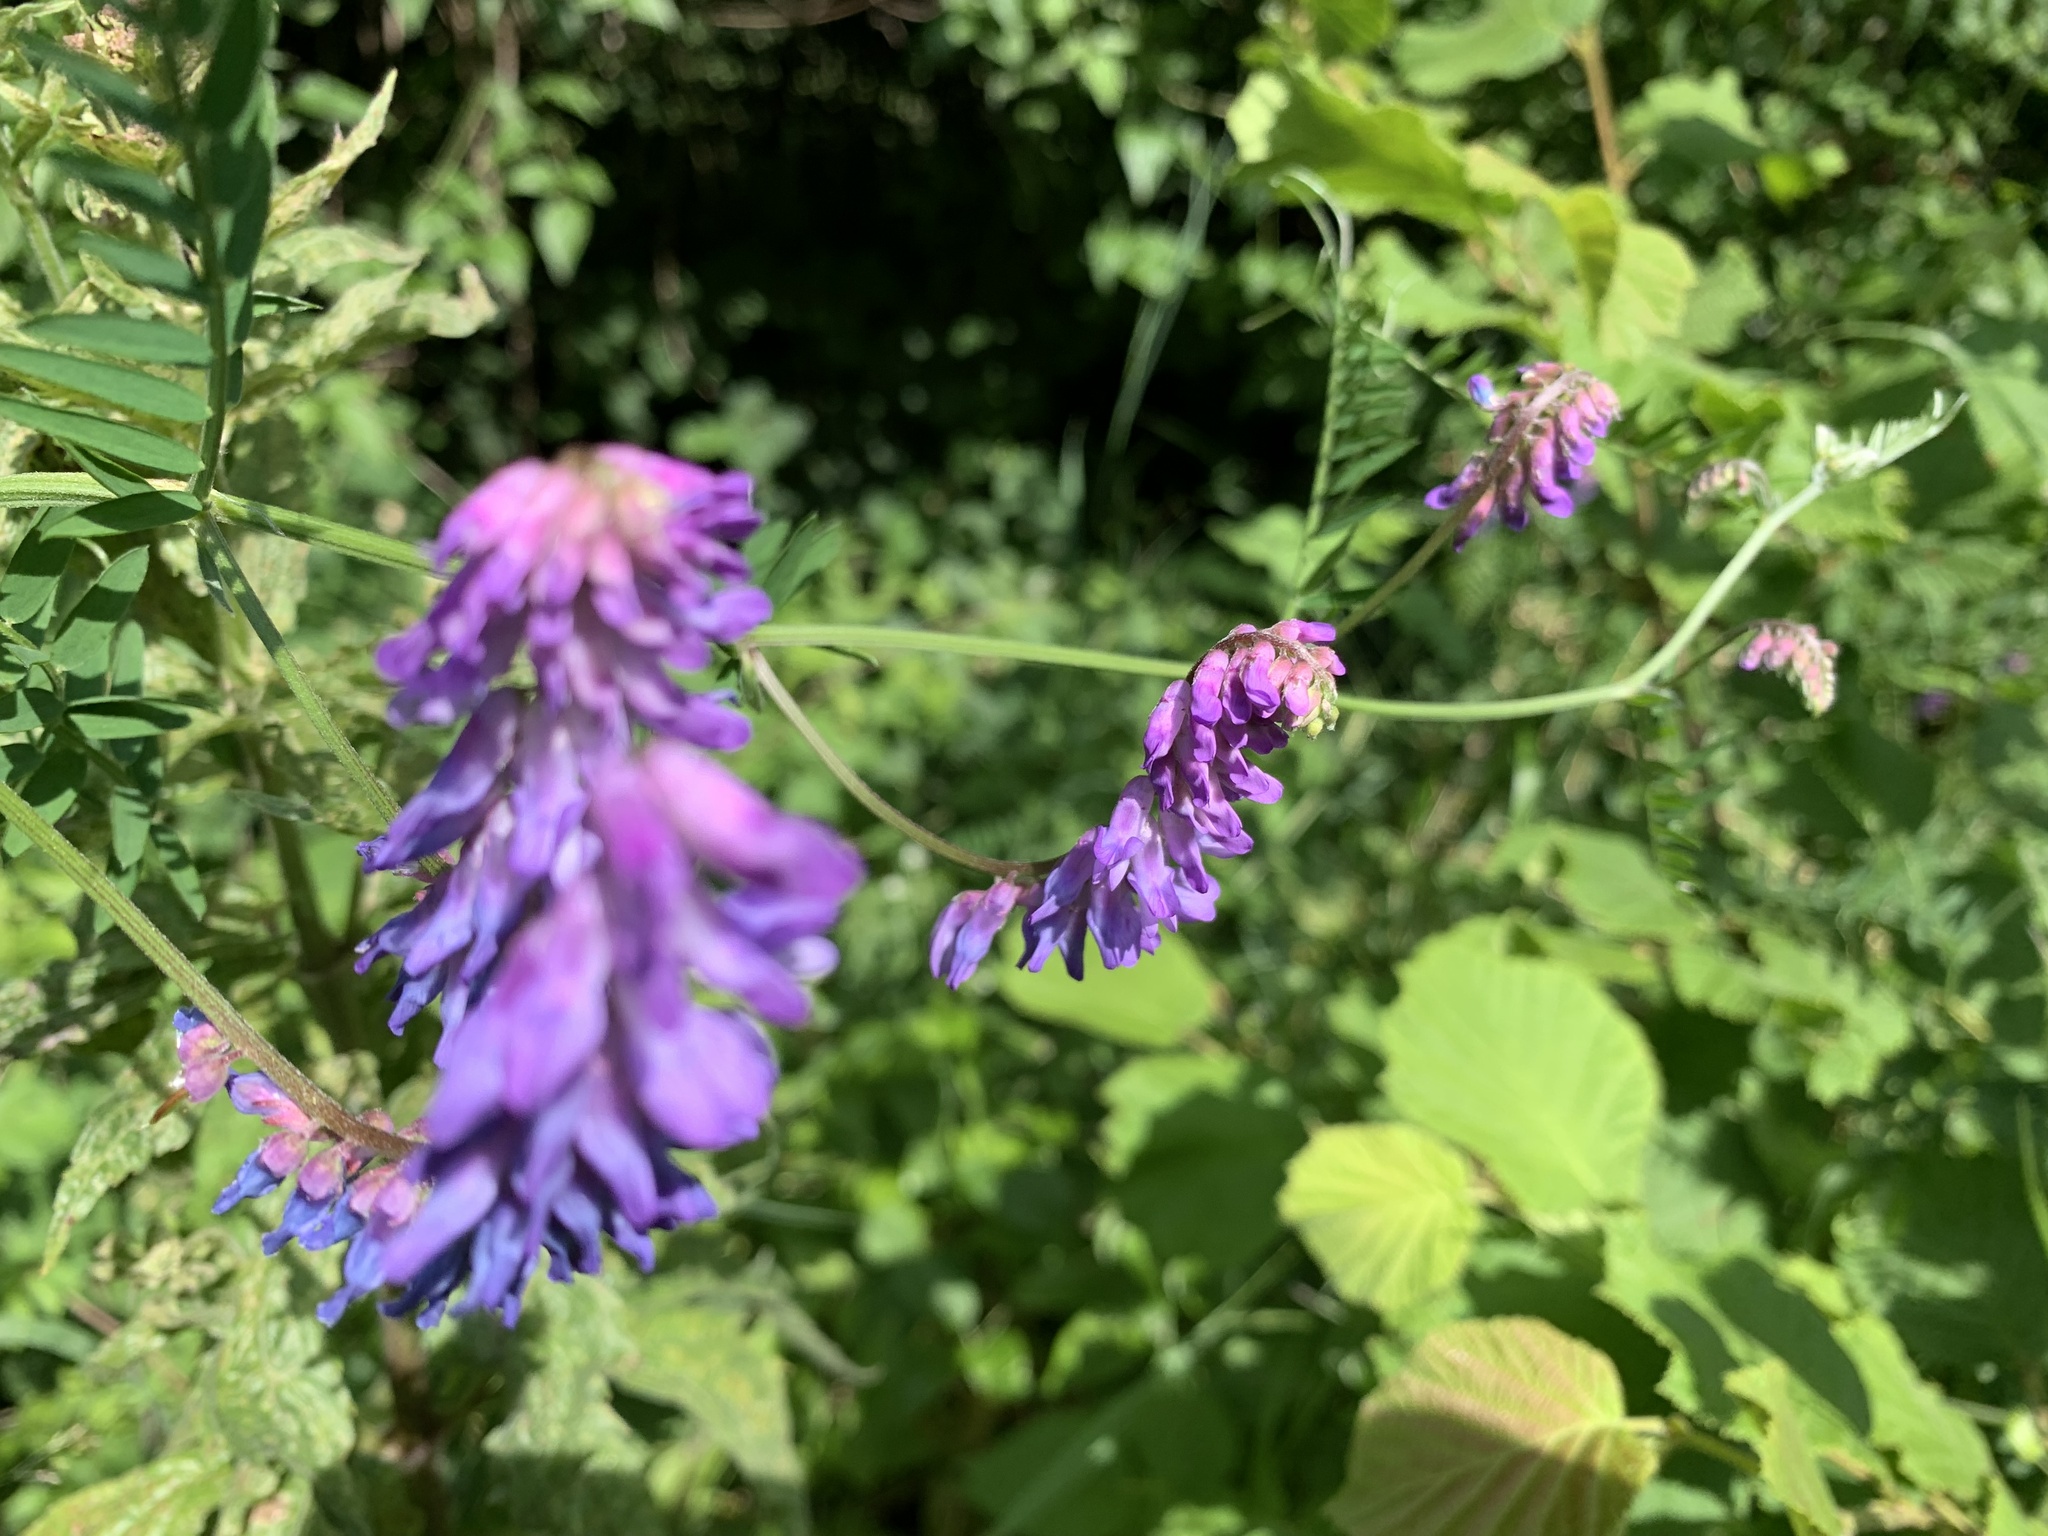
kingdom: Plantae
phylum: Tracheophyta
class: Magnoliopsida
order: Fabales
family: Fabaceae
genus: Vicia
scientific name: Vicia cracca
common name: Bird vetch
